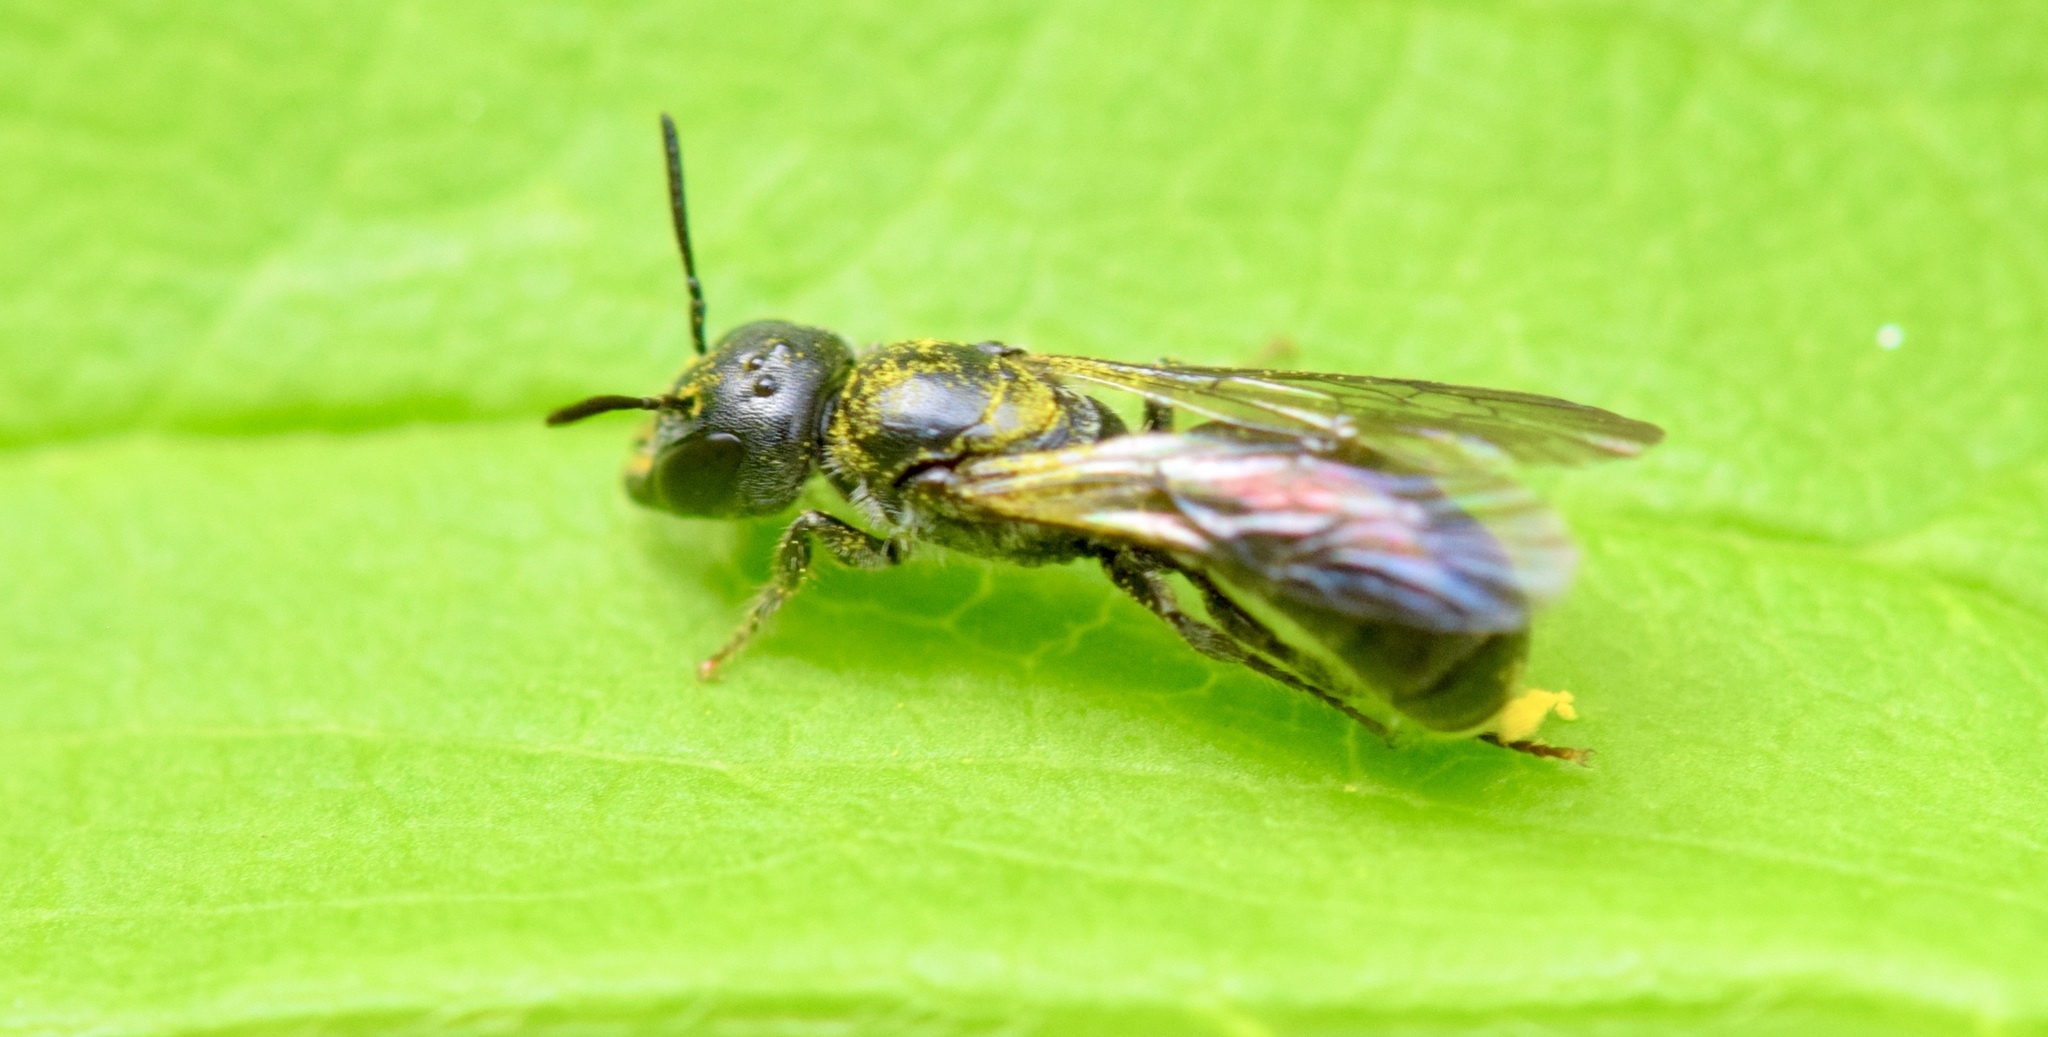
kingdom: Animalia
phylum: Arthropoda
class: Insecta
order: Hymenoptera
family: Megachilidae
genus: Chelostoma
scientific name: Chelostoma philadelphi
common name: Mock-orange scissor bee
